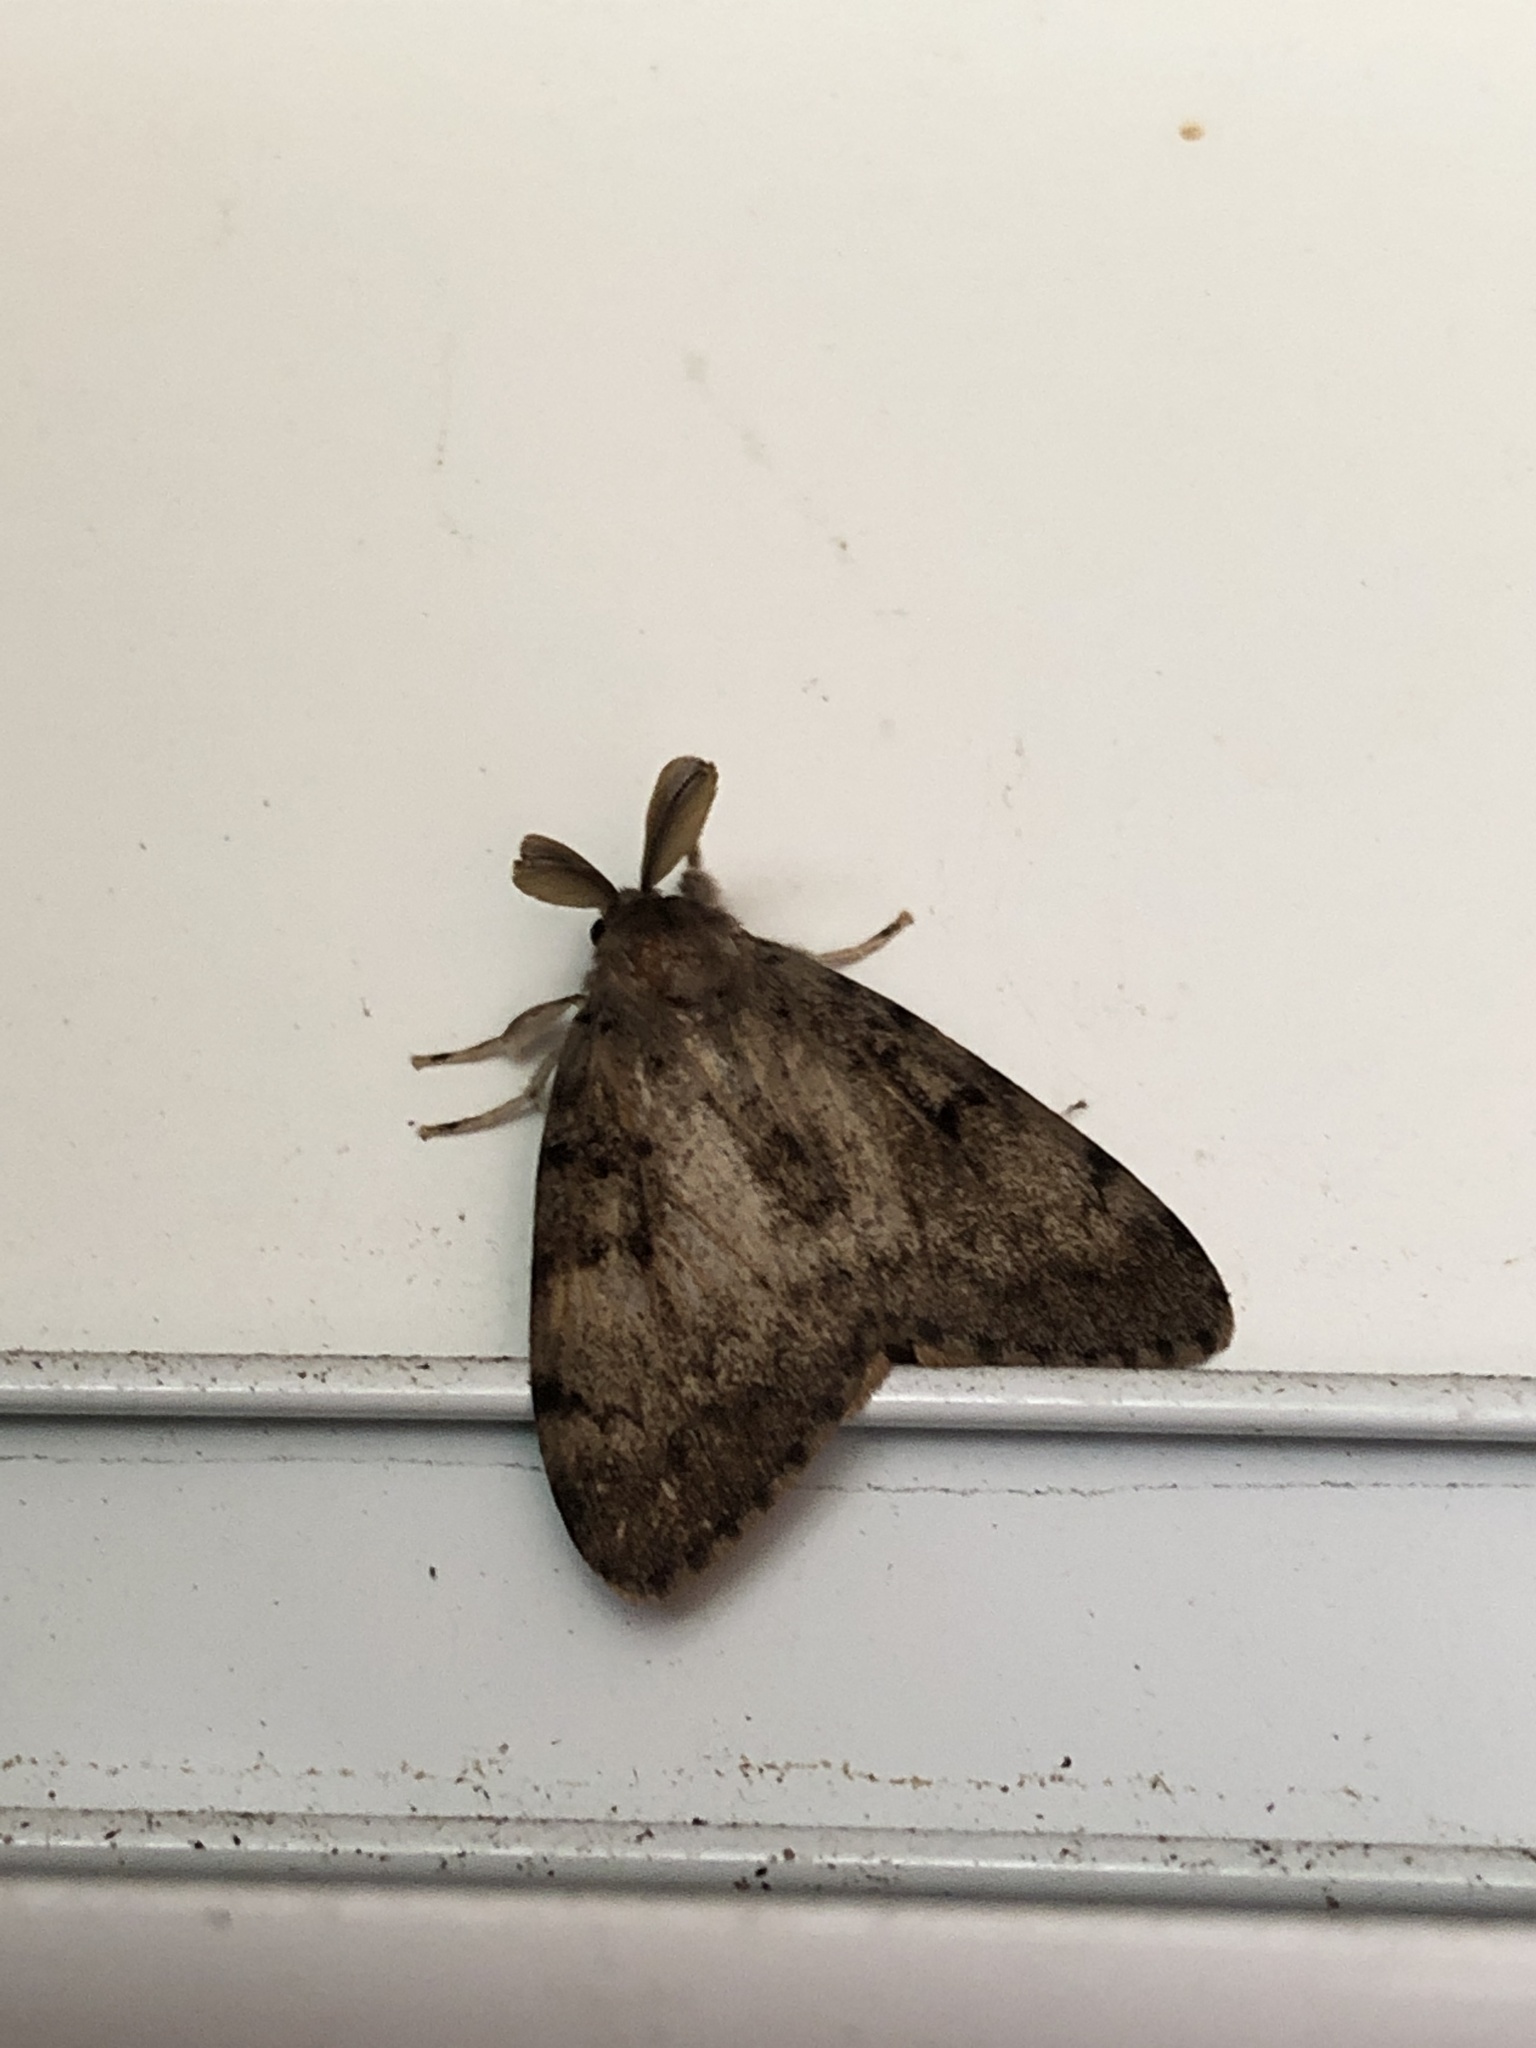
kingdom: Animalia
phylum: Arthropoda
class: Insecta
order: Lepidoptera
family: Erebidae
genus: Lymantria
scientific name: Lymantria dispar
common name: Gypsy moth
